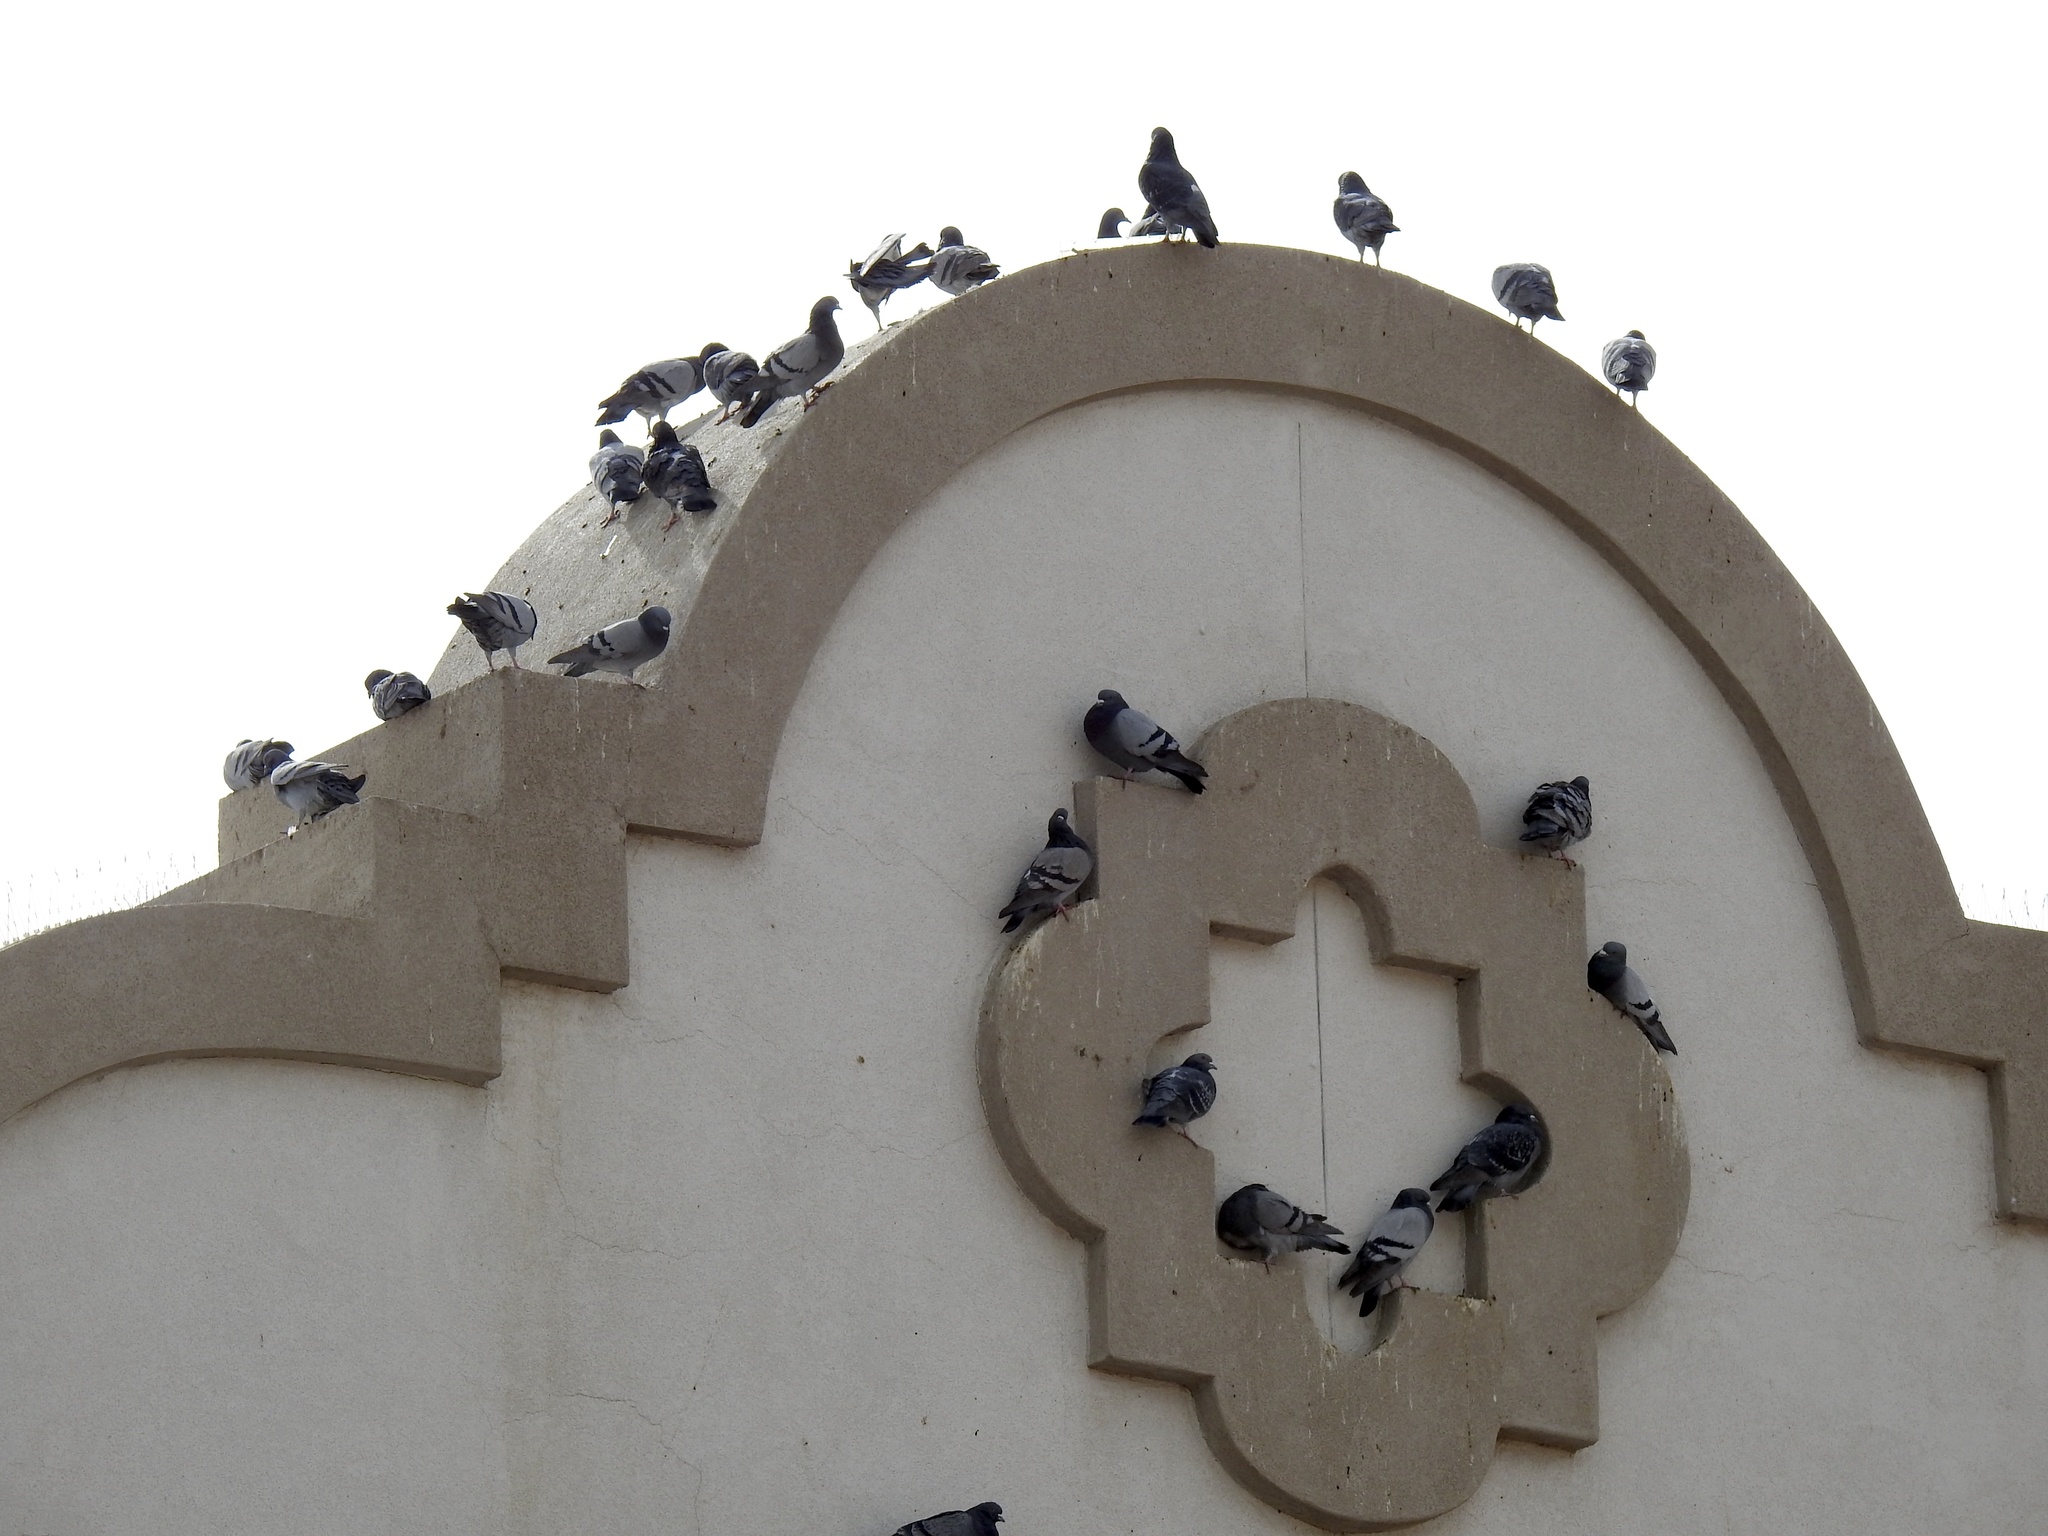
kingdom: Animalia
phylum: Chordata
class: Aves
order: Columbiformes
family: Columbidae
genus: Columba
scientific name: Columba livia
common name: Rock pigeon
